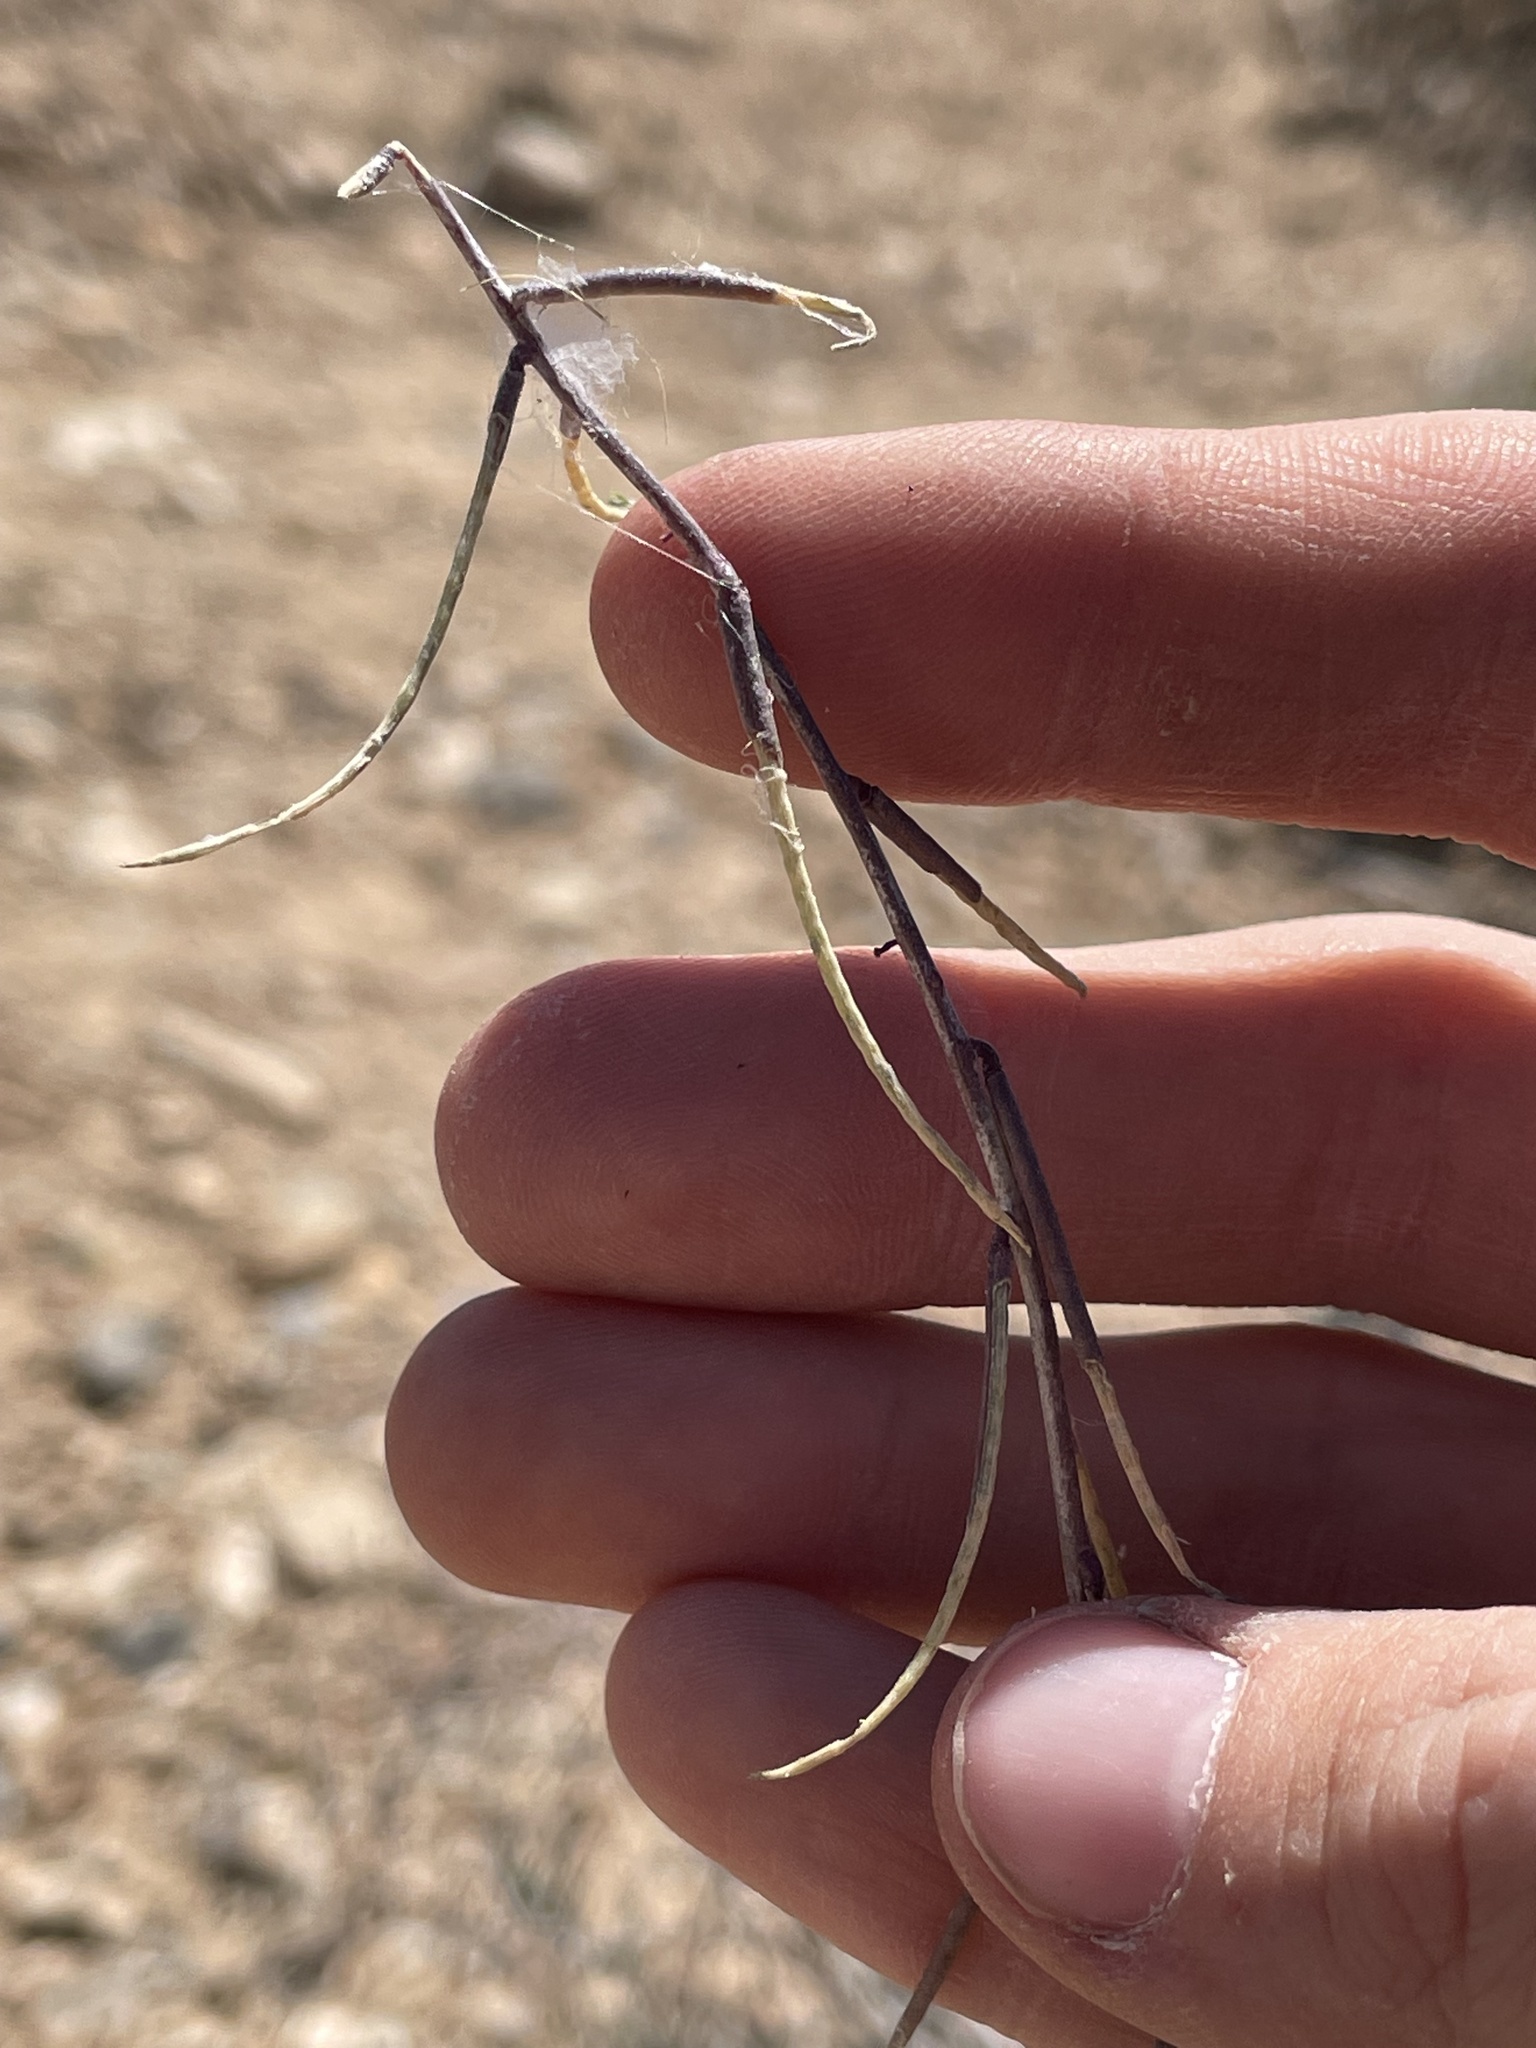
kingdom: Plantae
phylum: Tracheophyta
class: Magnoliopsida
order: Brassicales
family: Brassicaceae
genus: Streptanthus
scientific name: Streptanthus lasiophyllus
